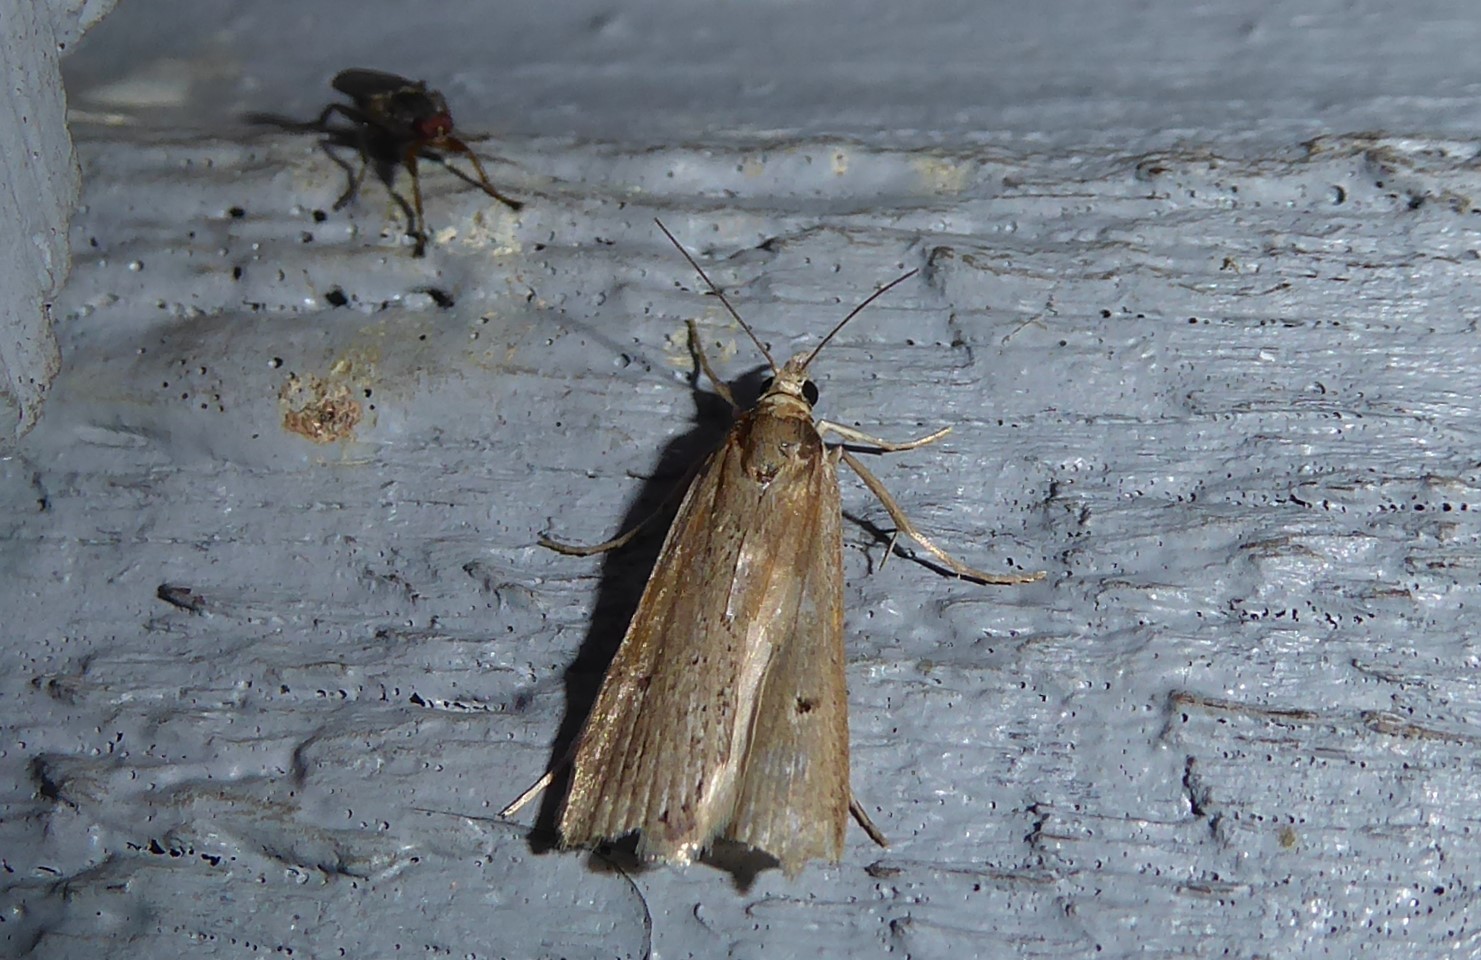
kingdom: Animalia
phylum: Arthropoda
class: Insecta
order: Lepidoptera
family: Crambidae
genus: Eudonia
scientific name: Eudonia sabulosella
